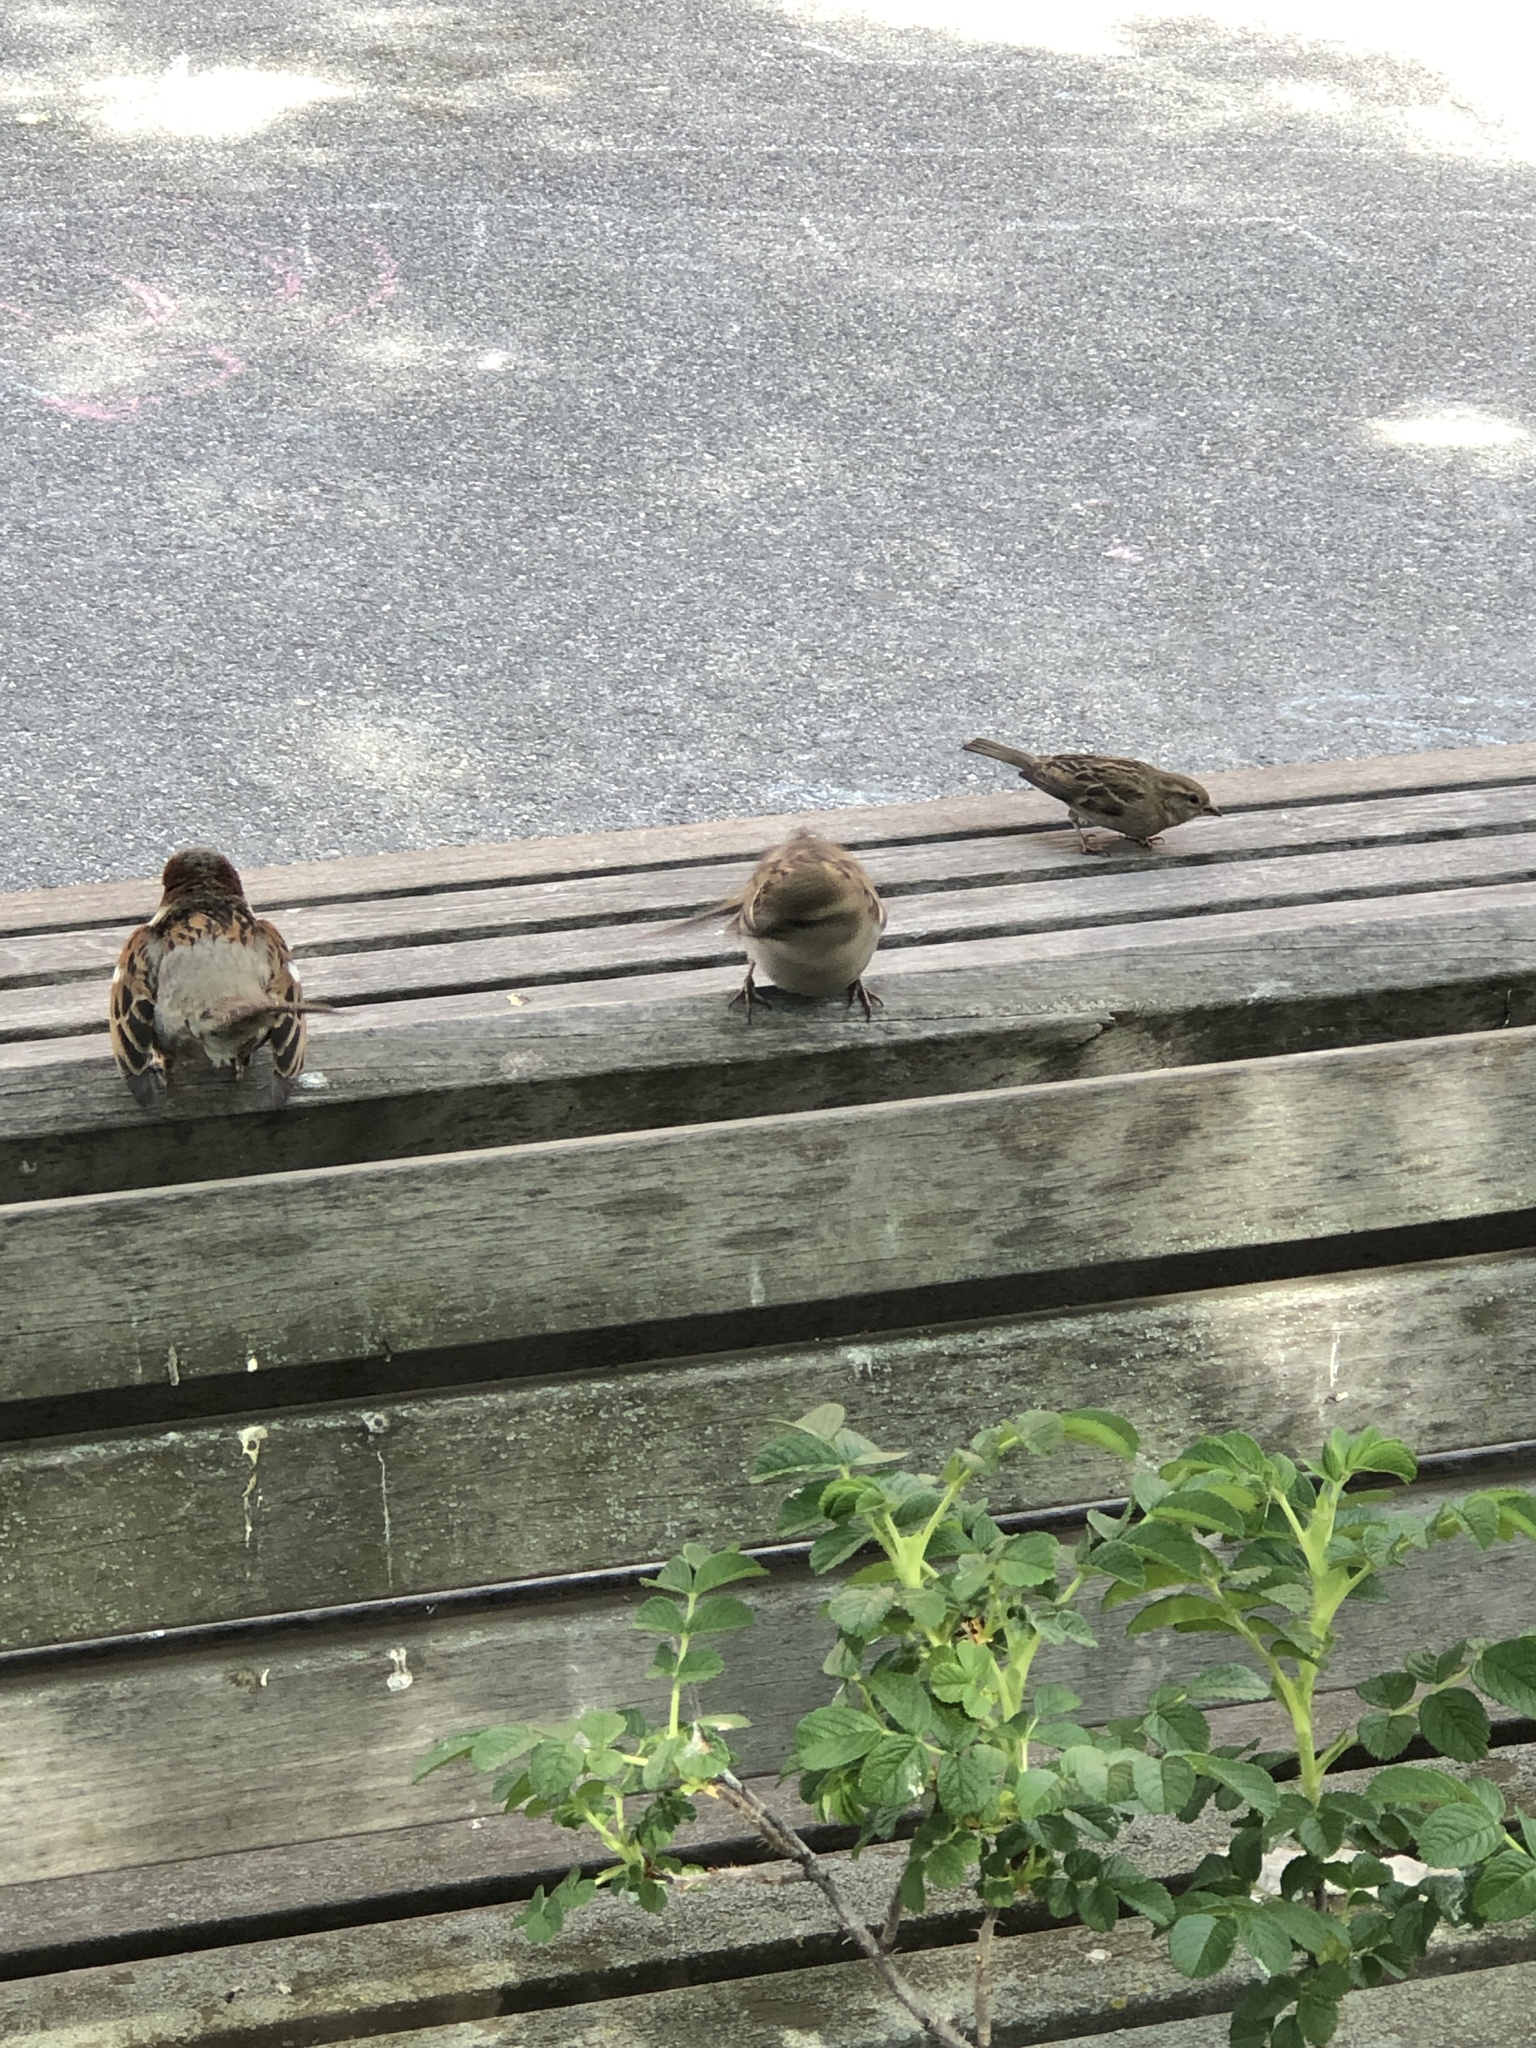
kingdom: Animalia
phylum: Chordata
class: Aves
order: Passeriformes
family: Passeridae
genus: Passer
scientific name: Passer domesticus
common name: House sparrow
